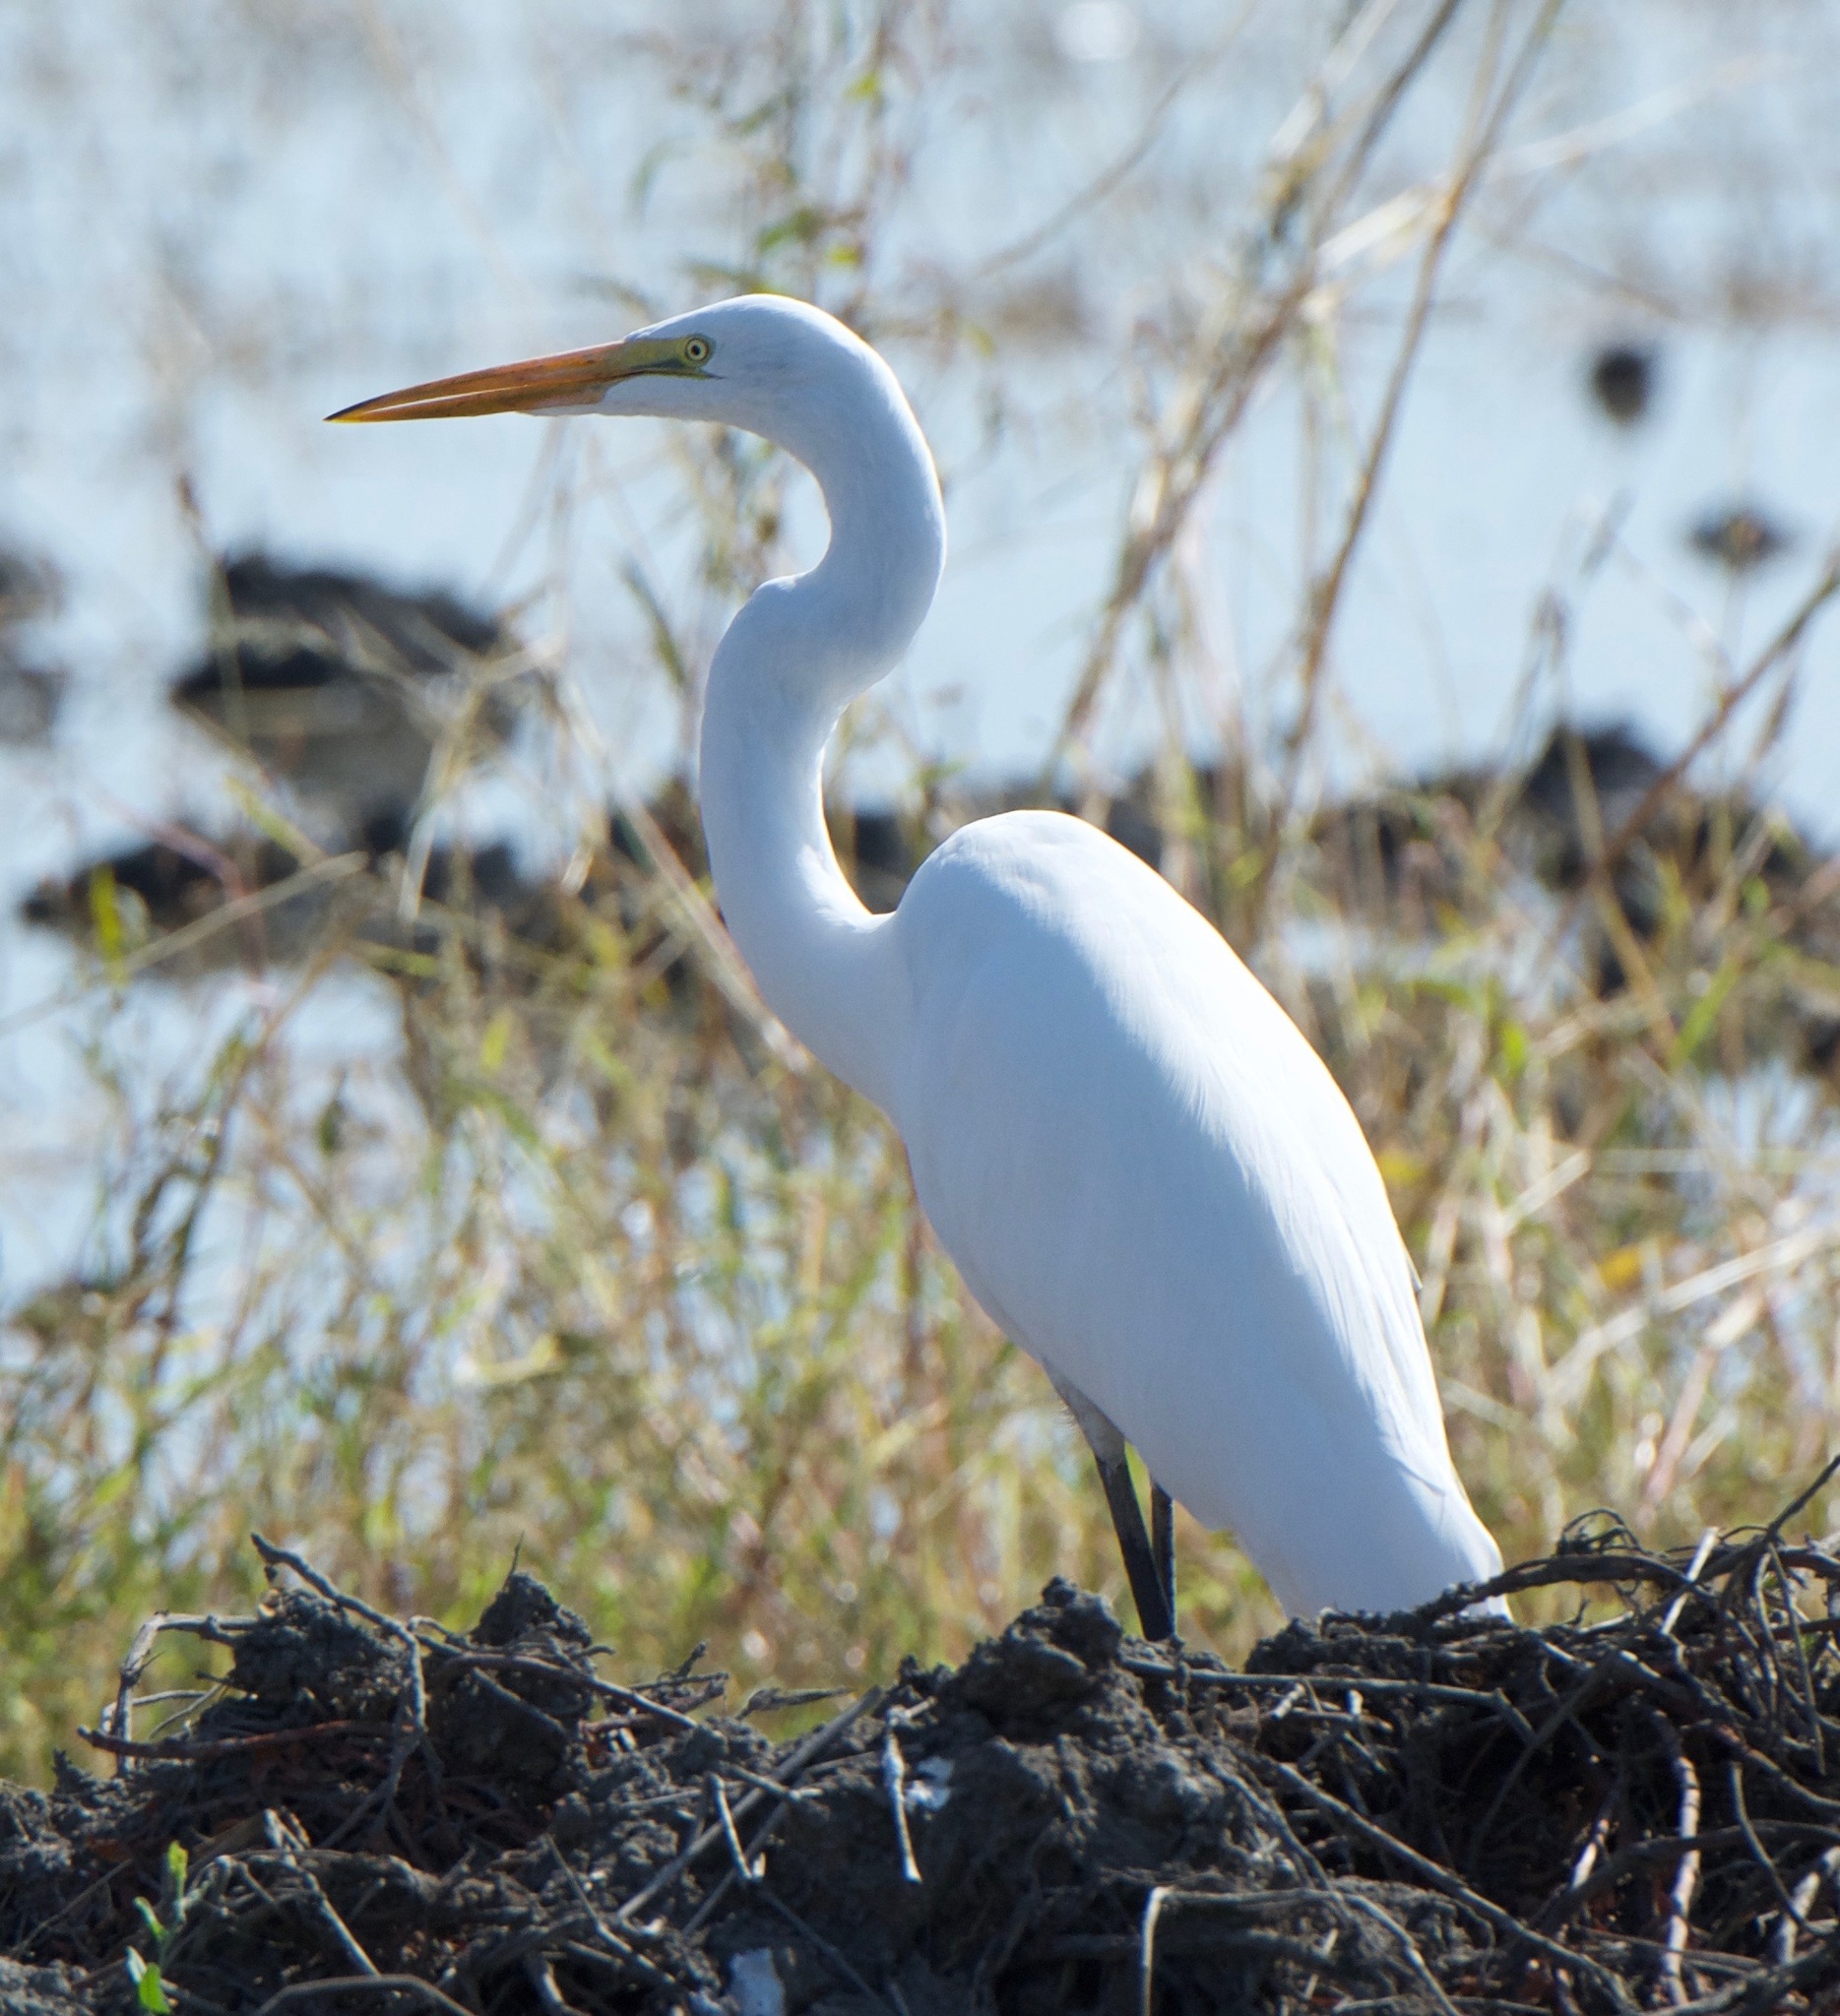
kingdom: Animalia
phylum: Chordata
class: Aves
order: Pelecaniformes
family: Ardeidae
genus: Ardea
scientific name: Ardea alba
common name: Great egret
